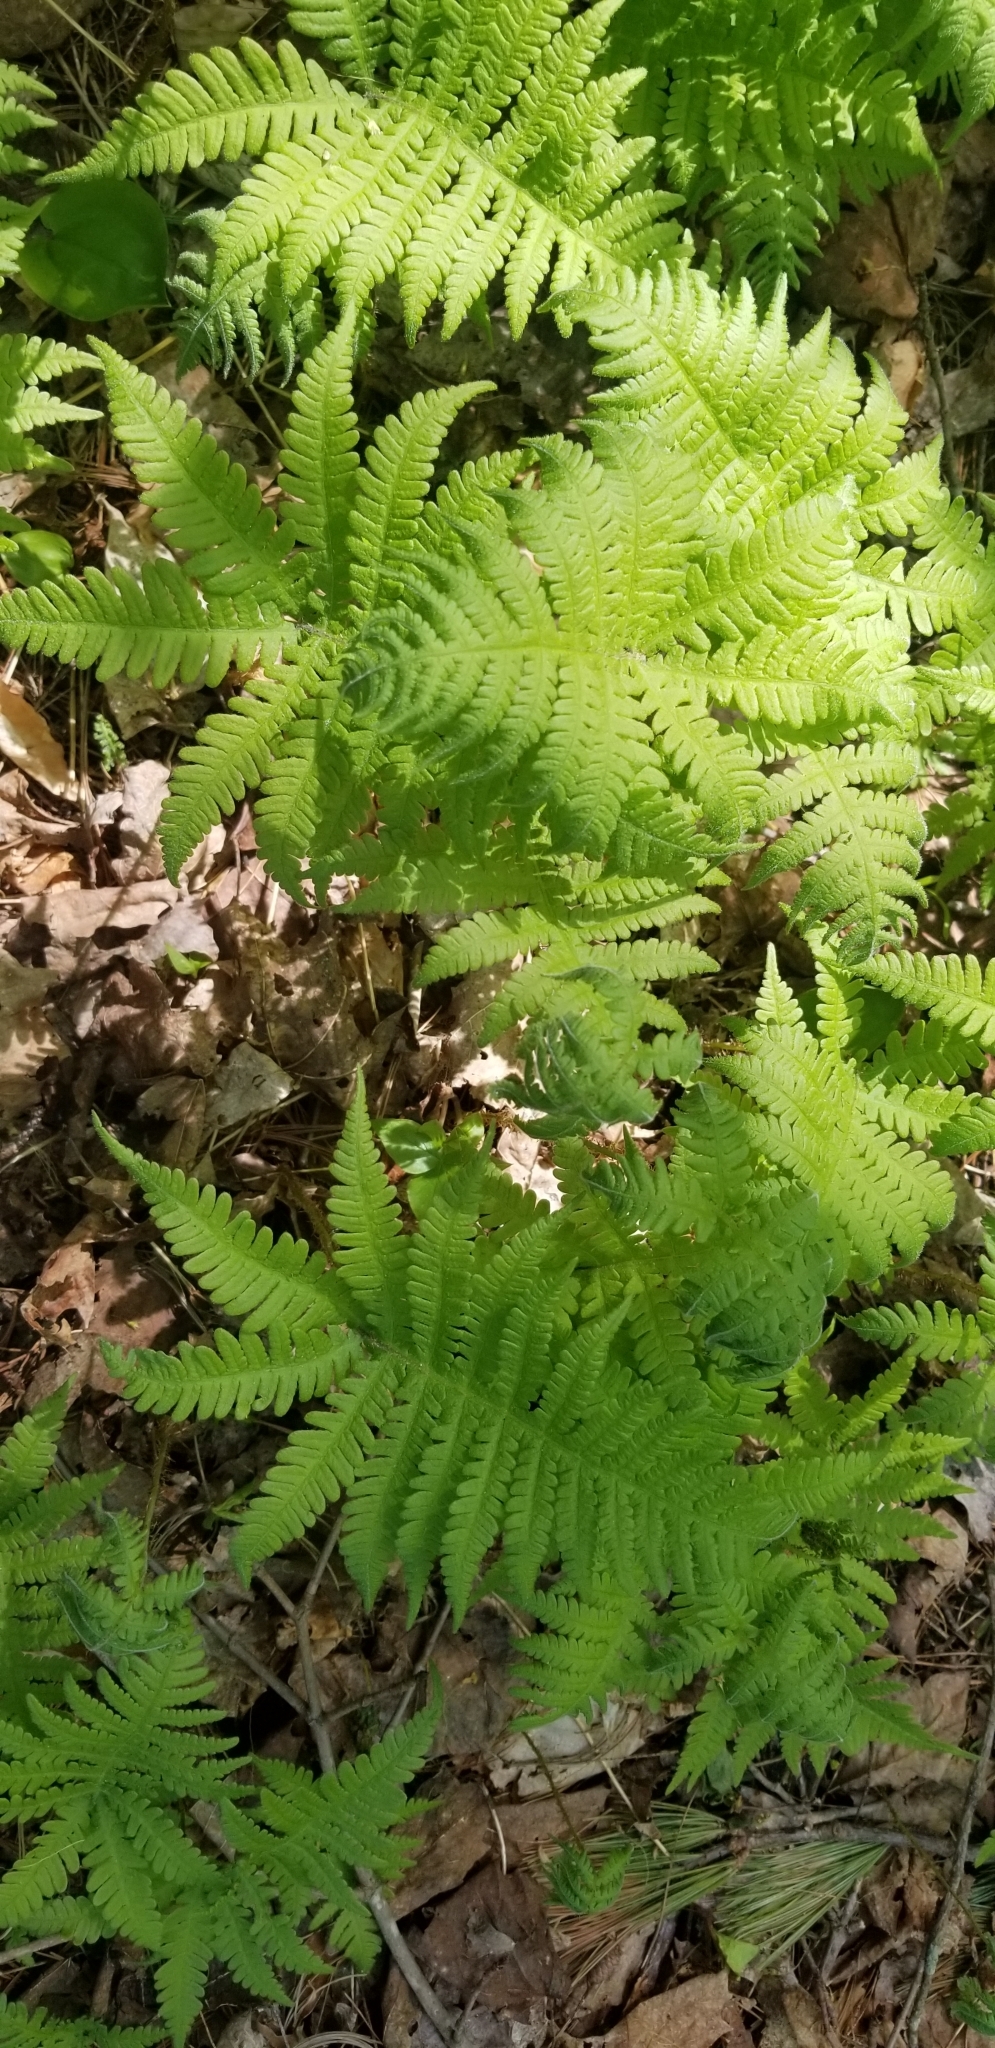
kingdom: Plantae
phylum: Tracheophyta
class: Polypodiopsida
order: Polypodiales
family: Thelypteridaceae
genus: Phegopteris
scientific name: Phegopteris connectilis
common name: Beech fern
